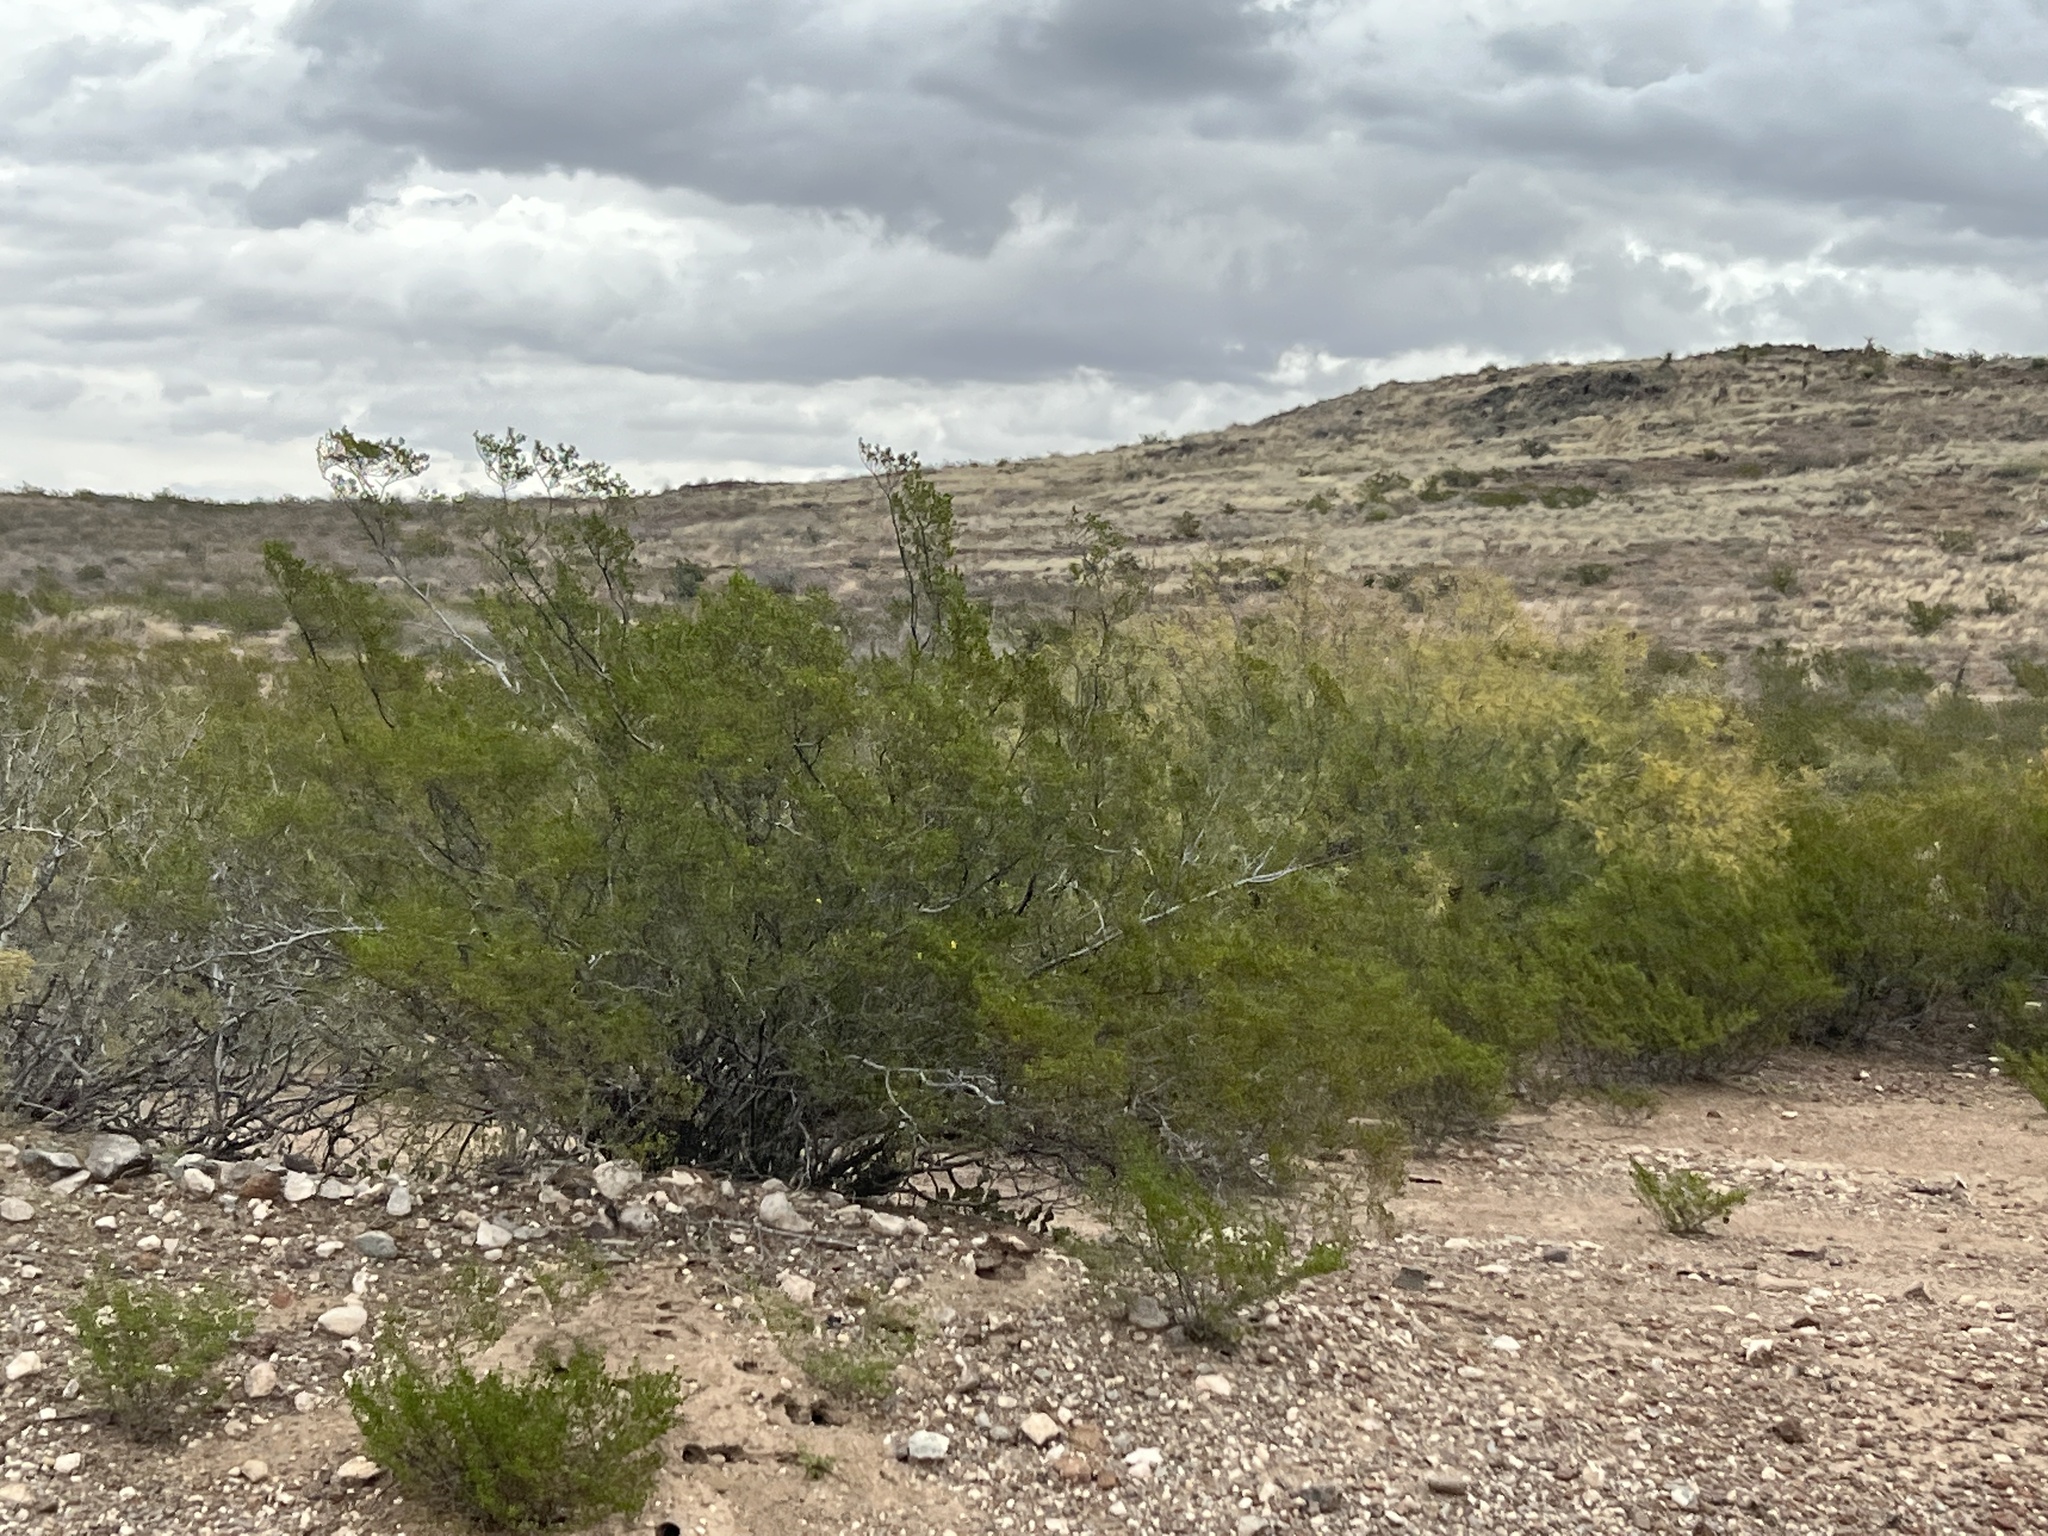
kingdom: Plantae
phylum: Tracheophyta
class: Magnoliopsida
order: Zygophyllales
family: Zygophyllaceae
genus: Larrea
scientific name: Larrea tridentata
